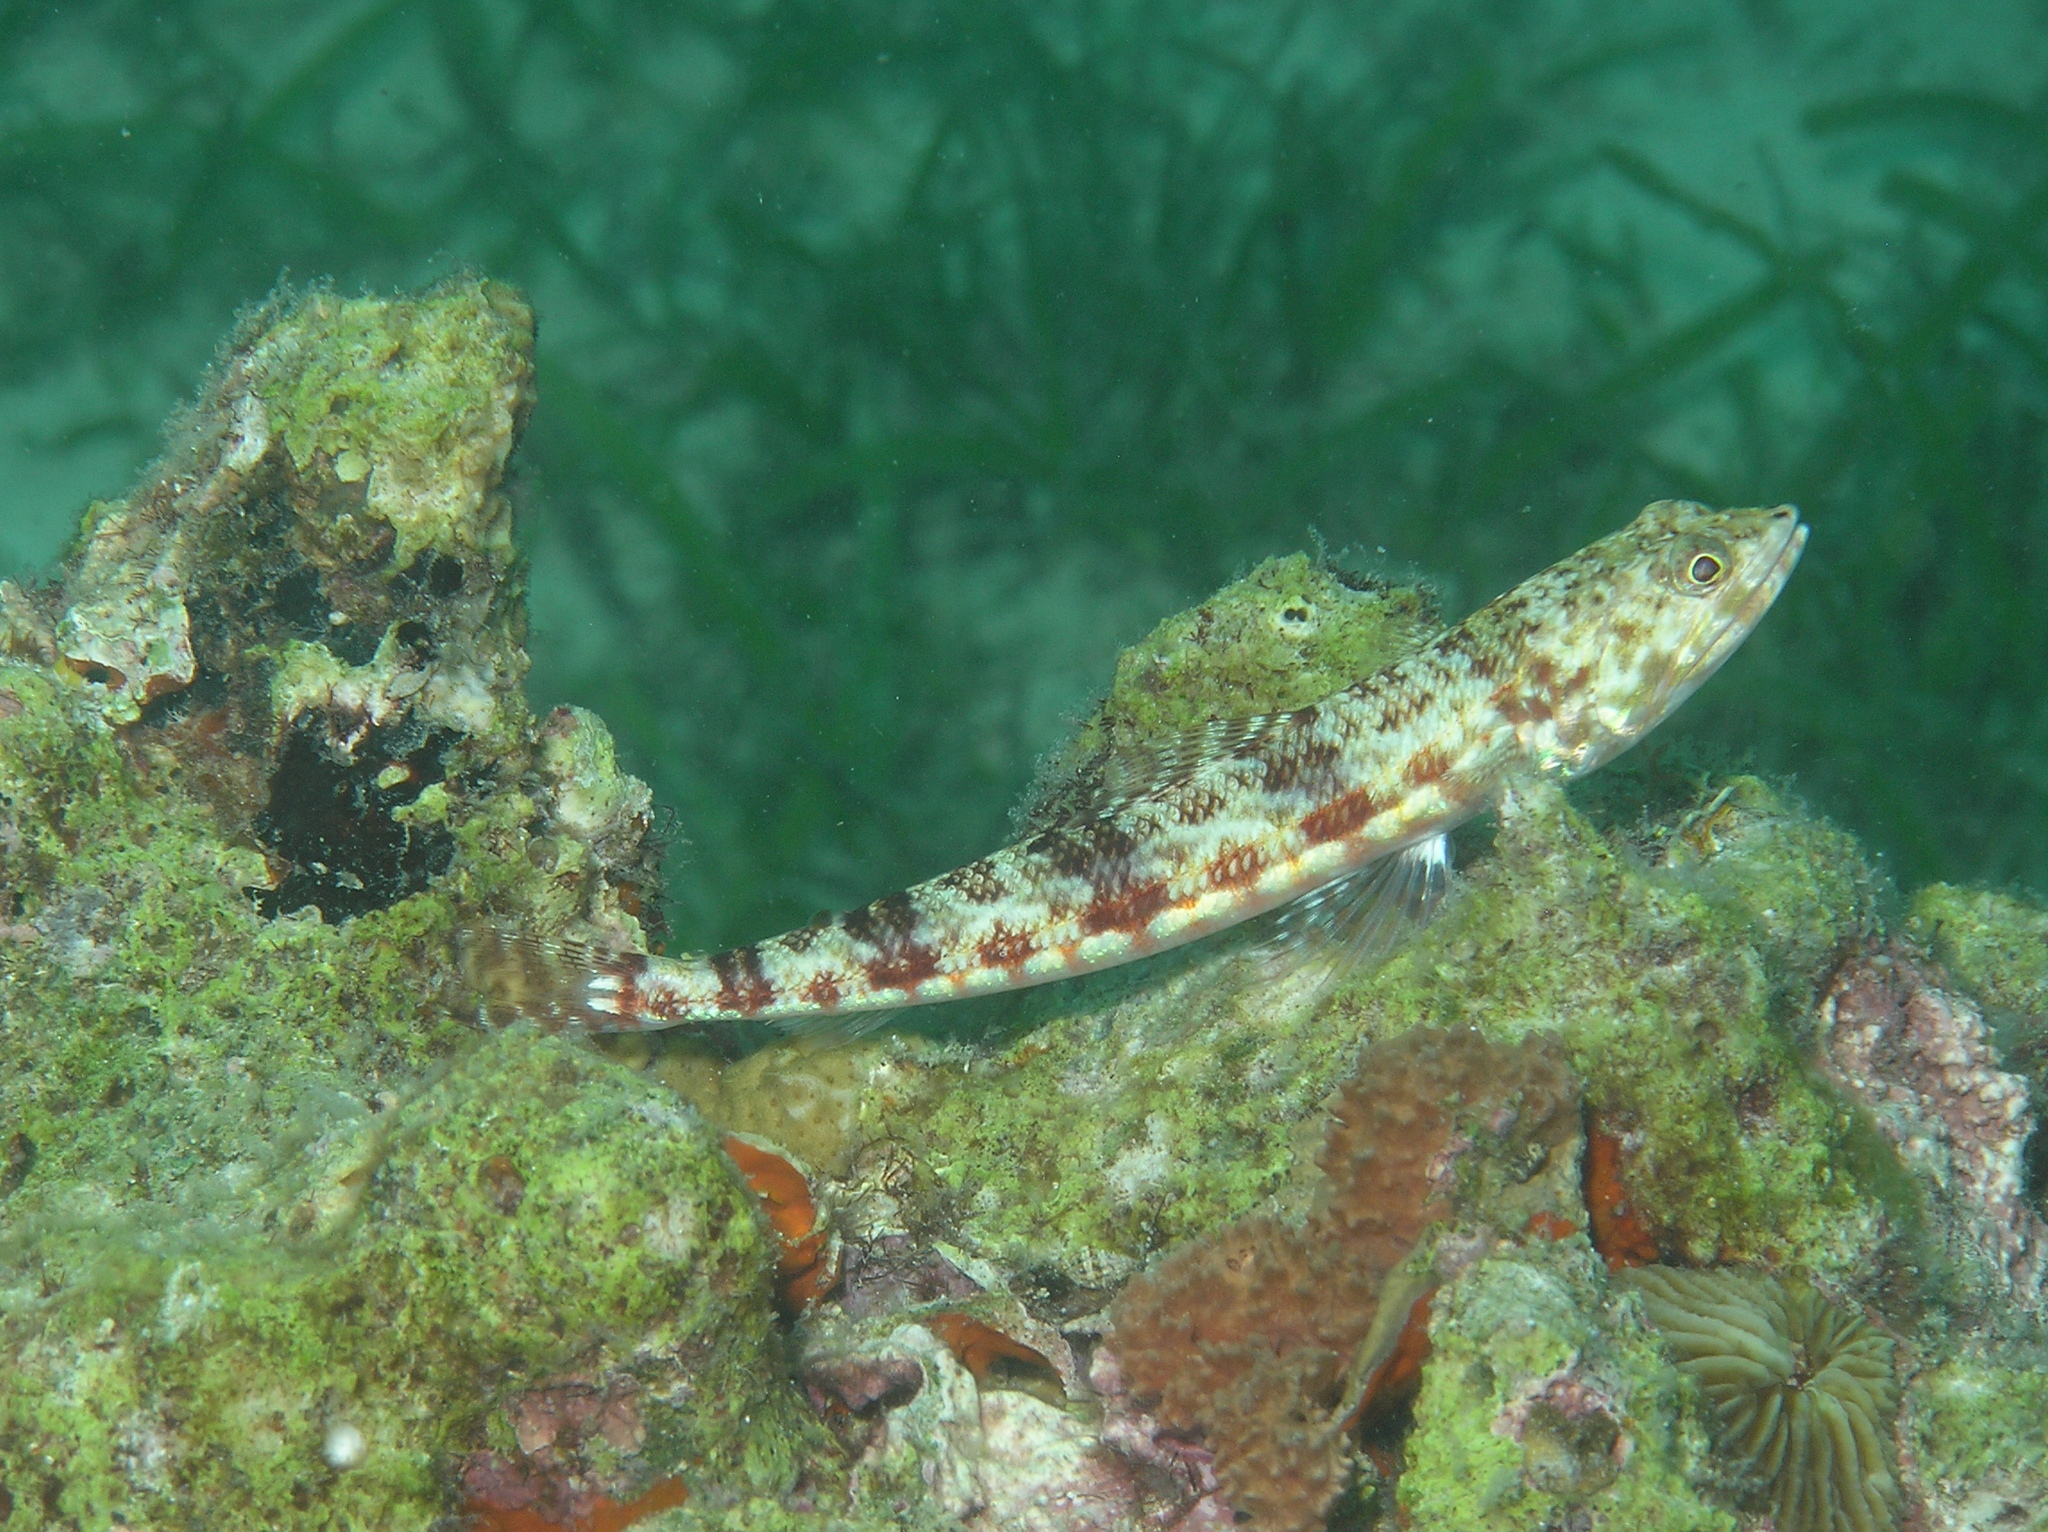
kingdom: Animalia
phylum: Chordata
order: Aulopiformes
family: Synodontidae
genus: Synodus
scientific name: Synodus variegatus
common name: Variegated lizardfish
